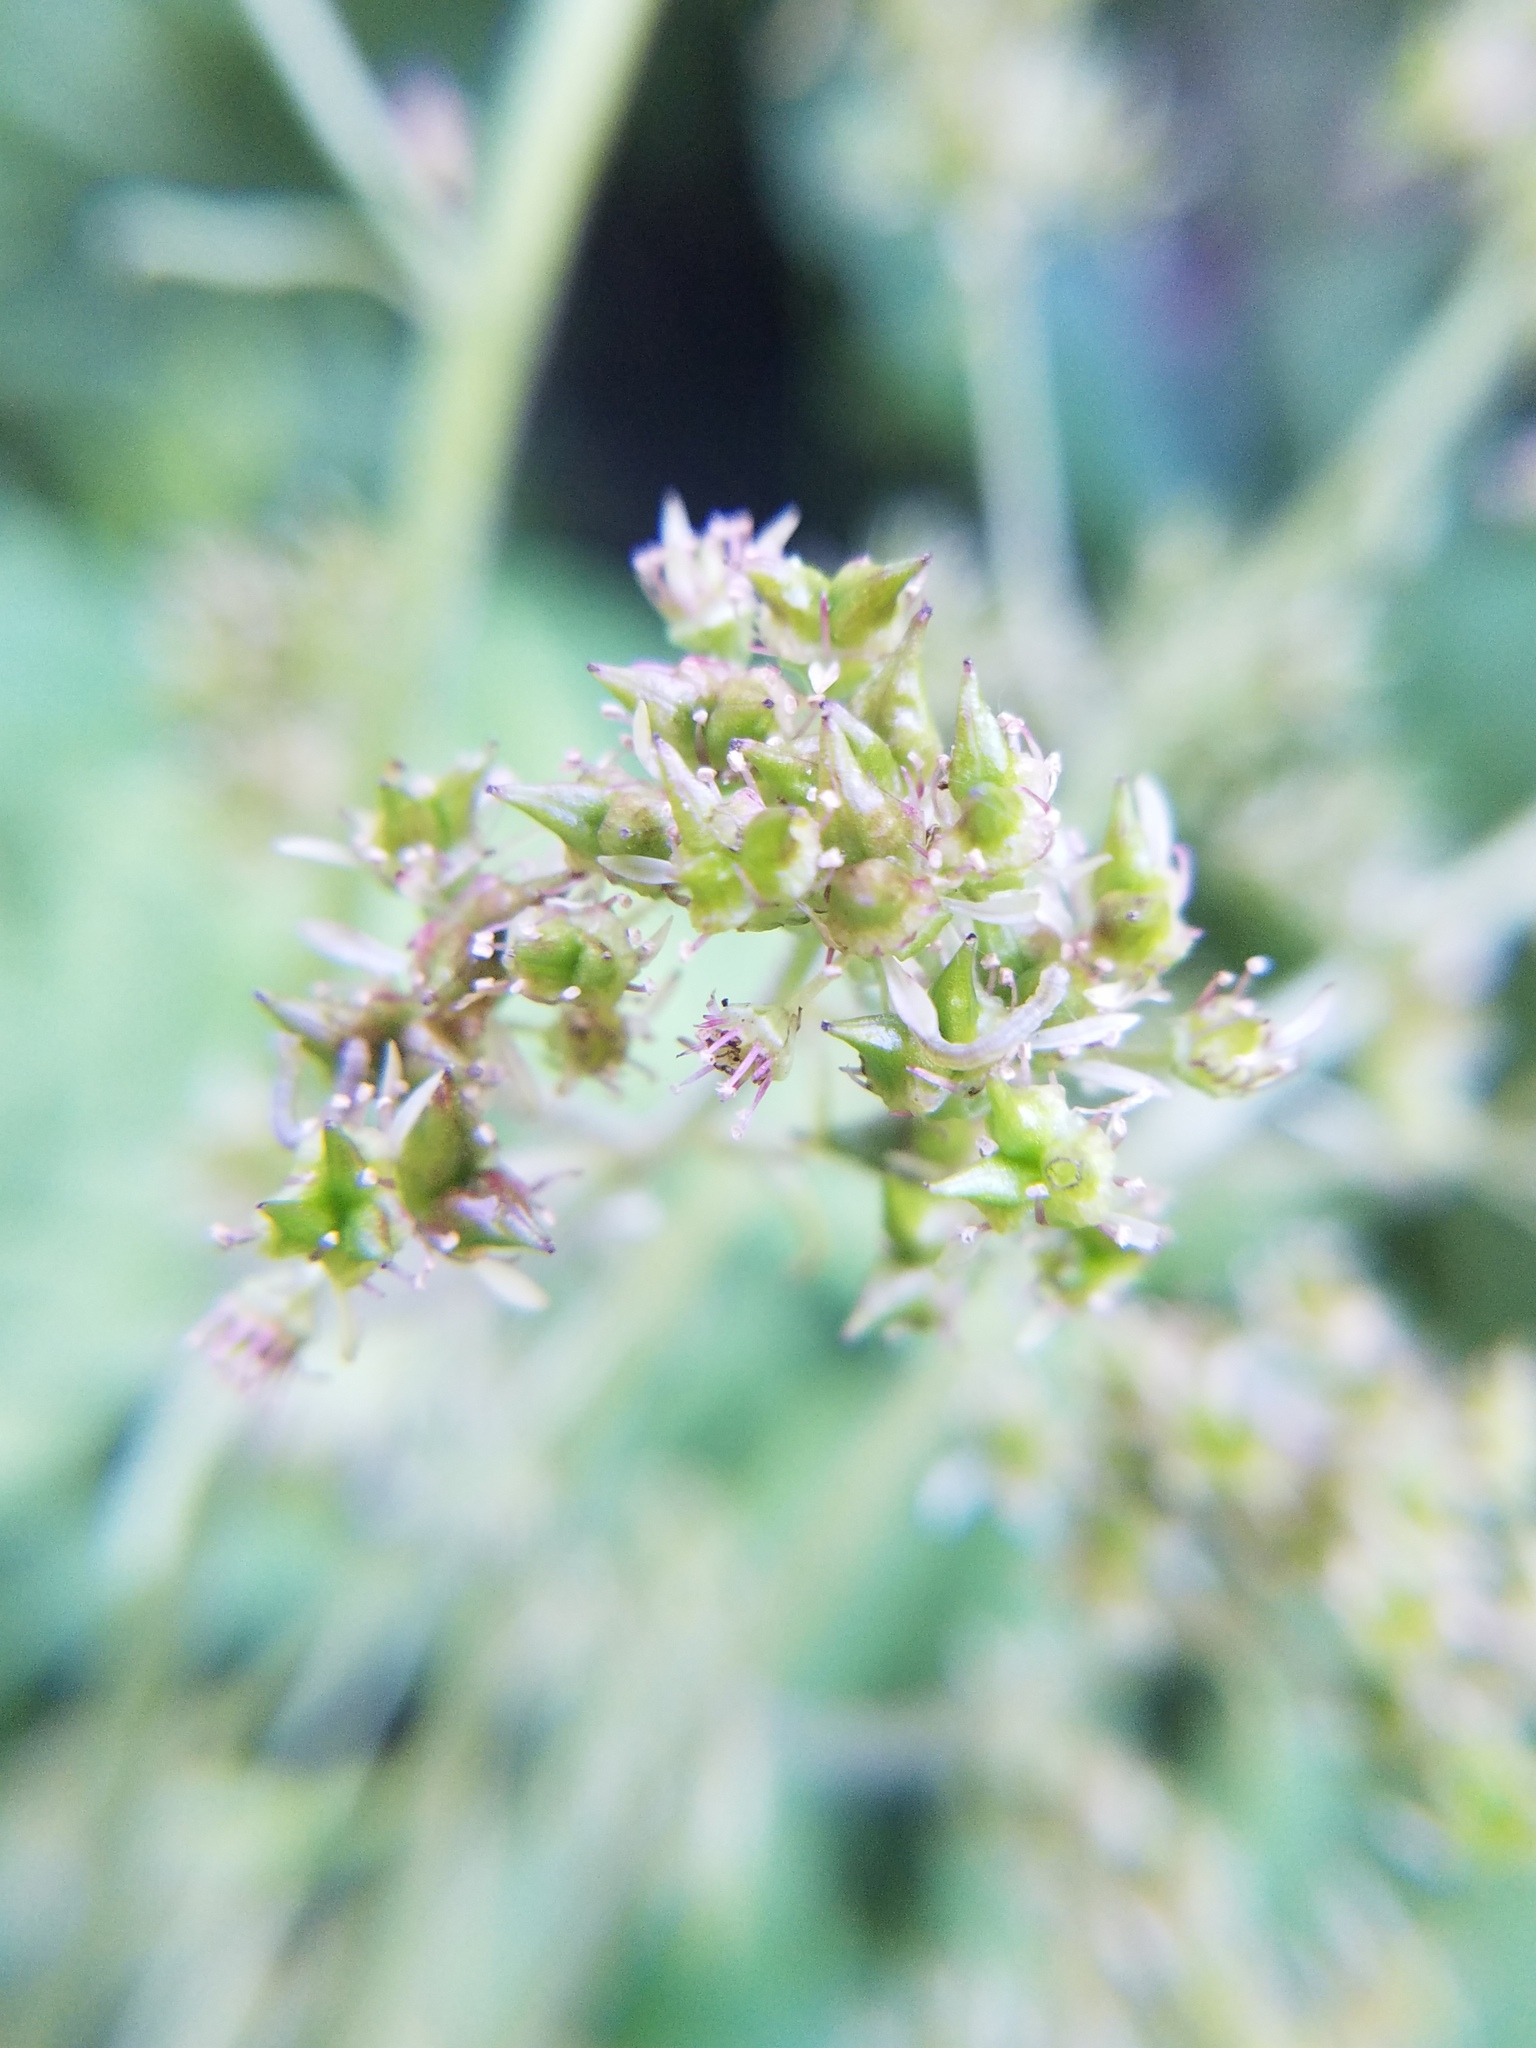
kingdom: Plantae
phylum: Tracheophyta
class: Magnoliopsida
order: Saxifragales
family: Saxifragaceae
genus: Micranthes
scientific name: Micranthes pensylvanica
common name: Marsh saxifrage
